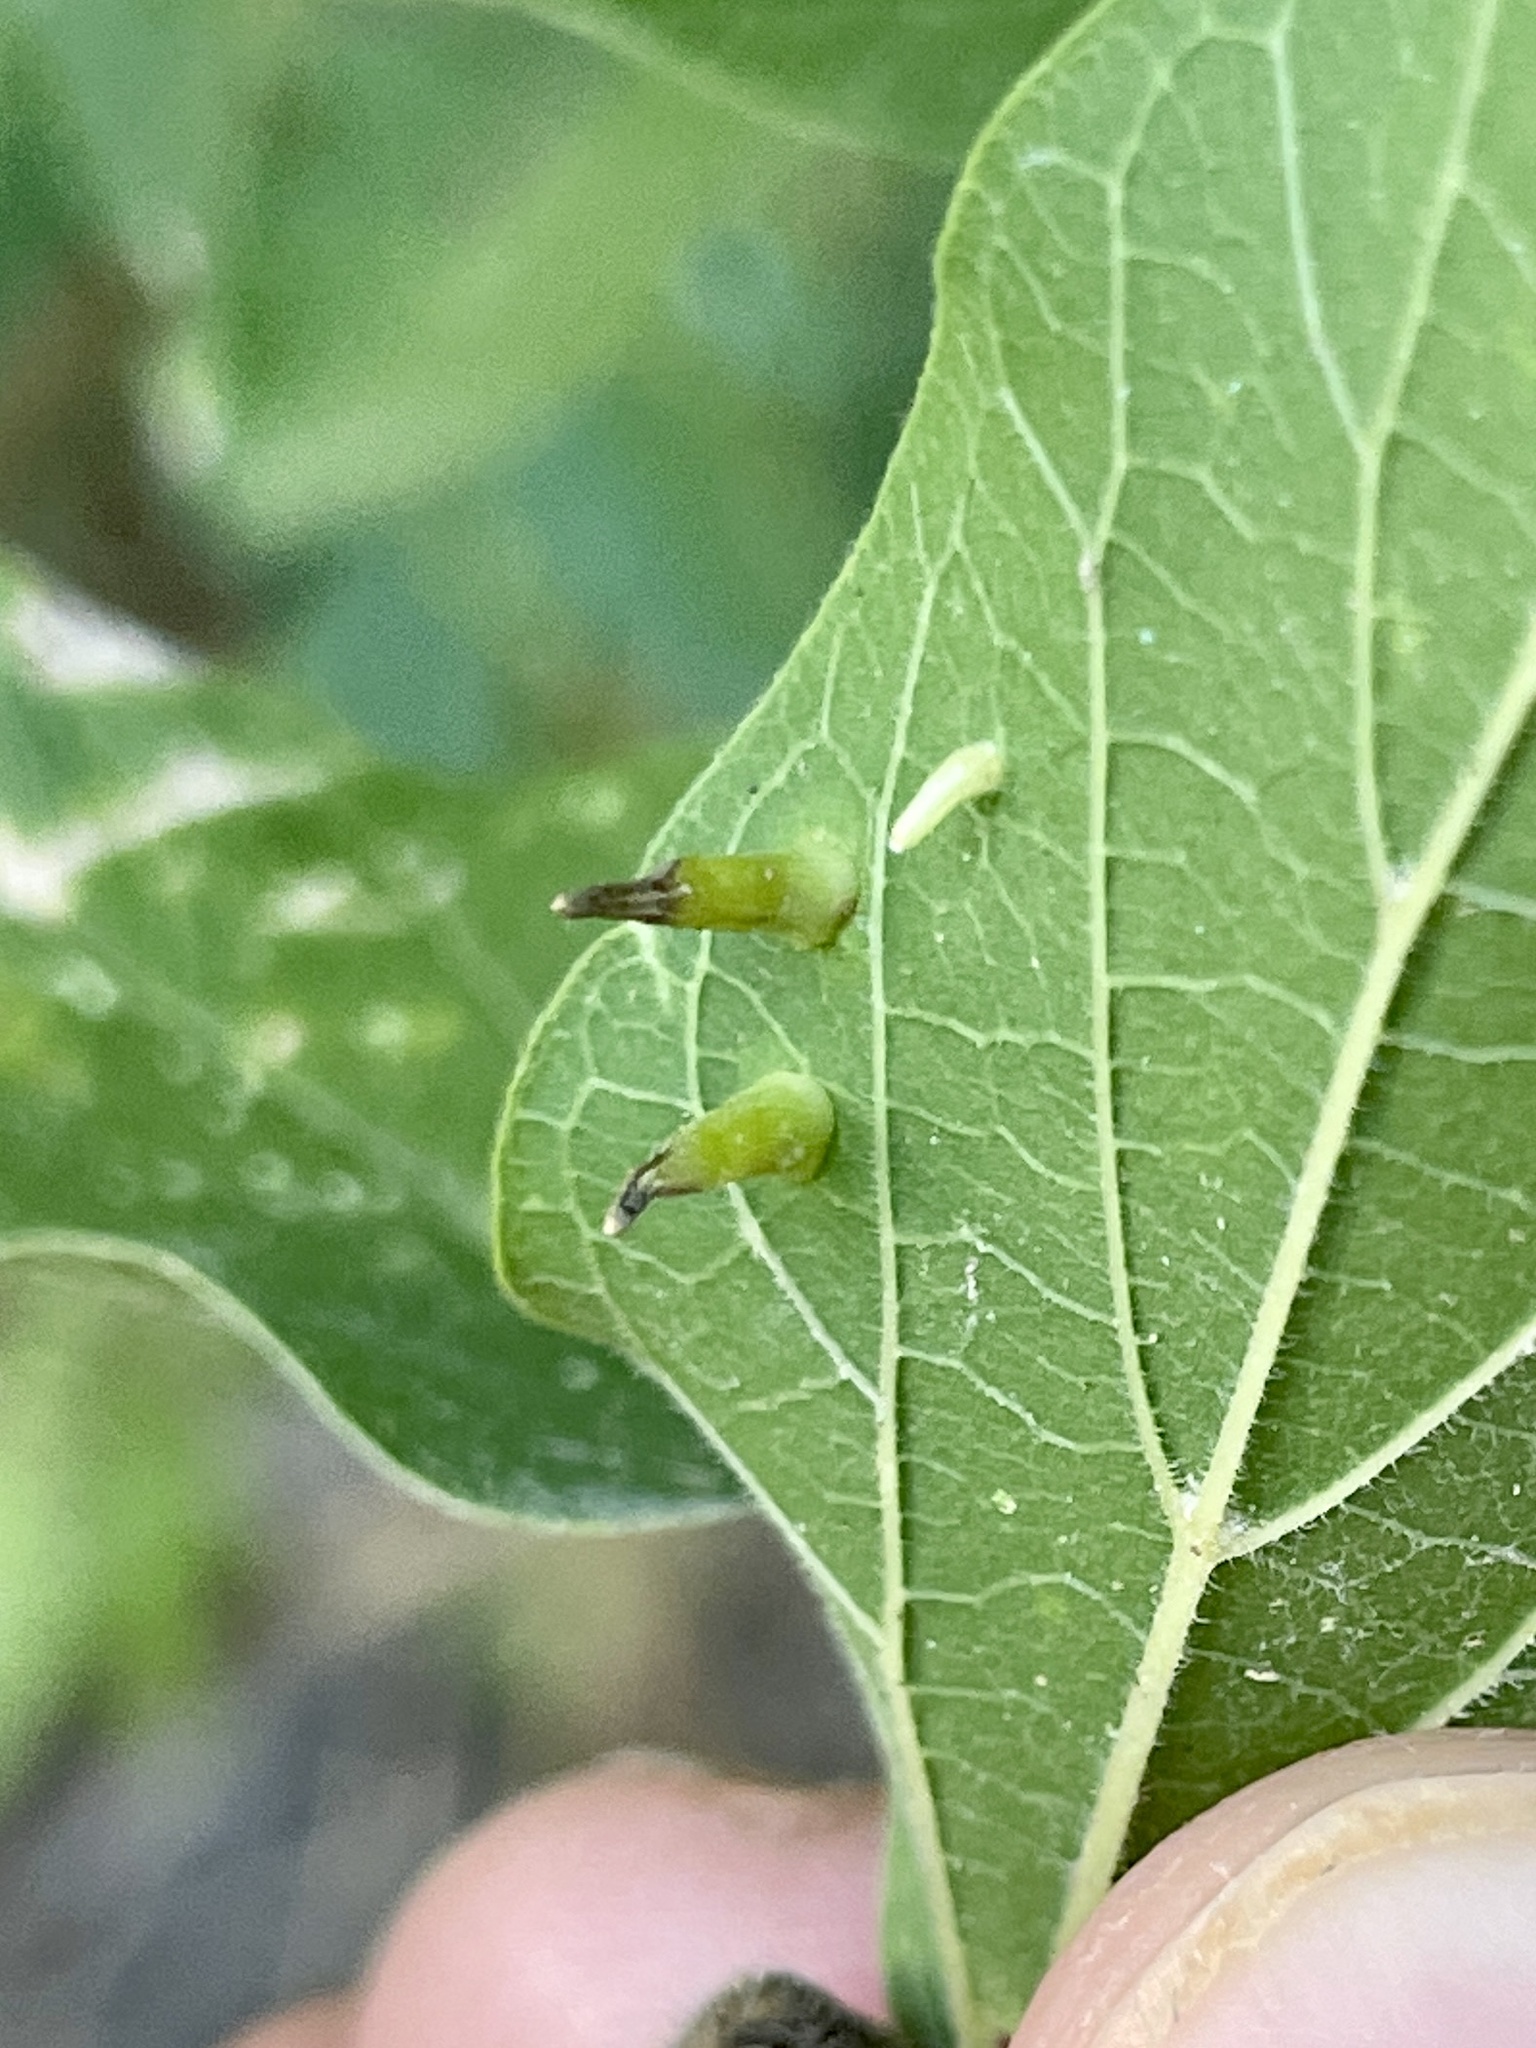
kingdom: Animalia
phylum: Arthropoda
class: Insecta
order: Diptera
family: Cecidomyiidae
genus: Celticecis
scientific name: Celticecis subulata
